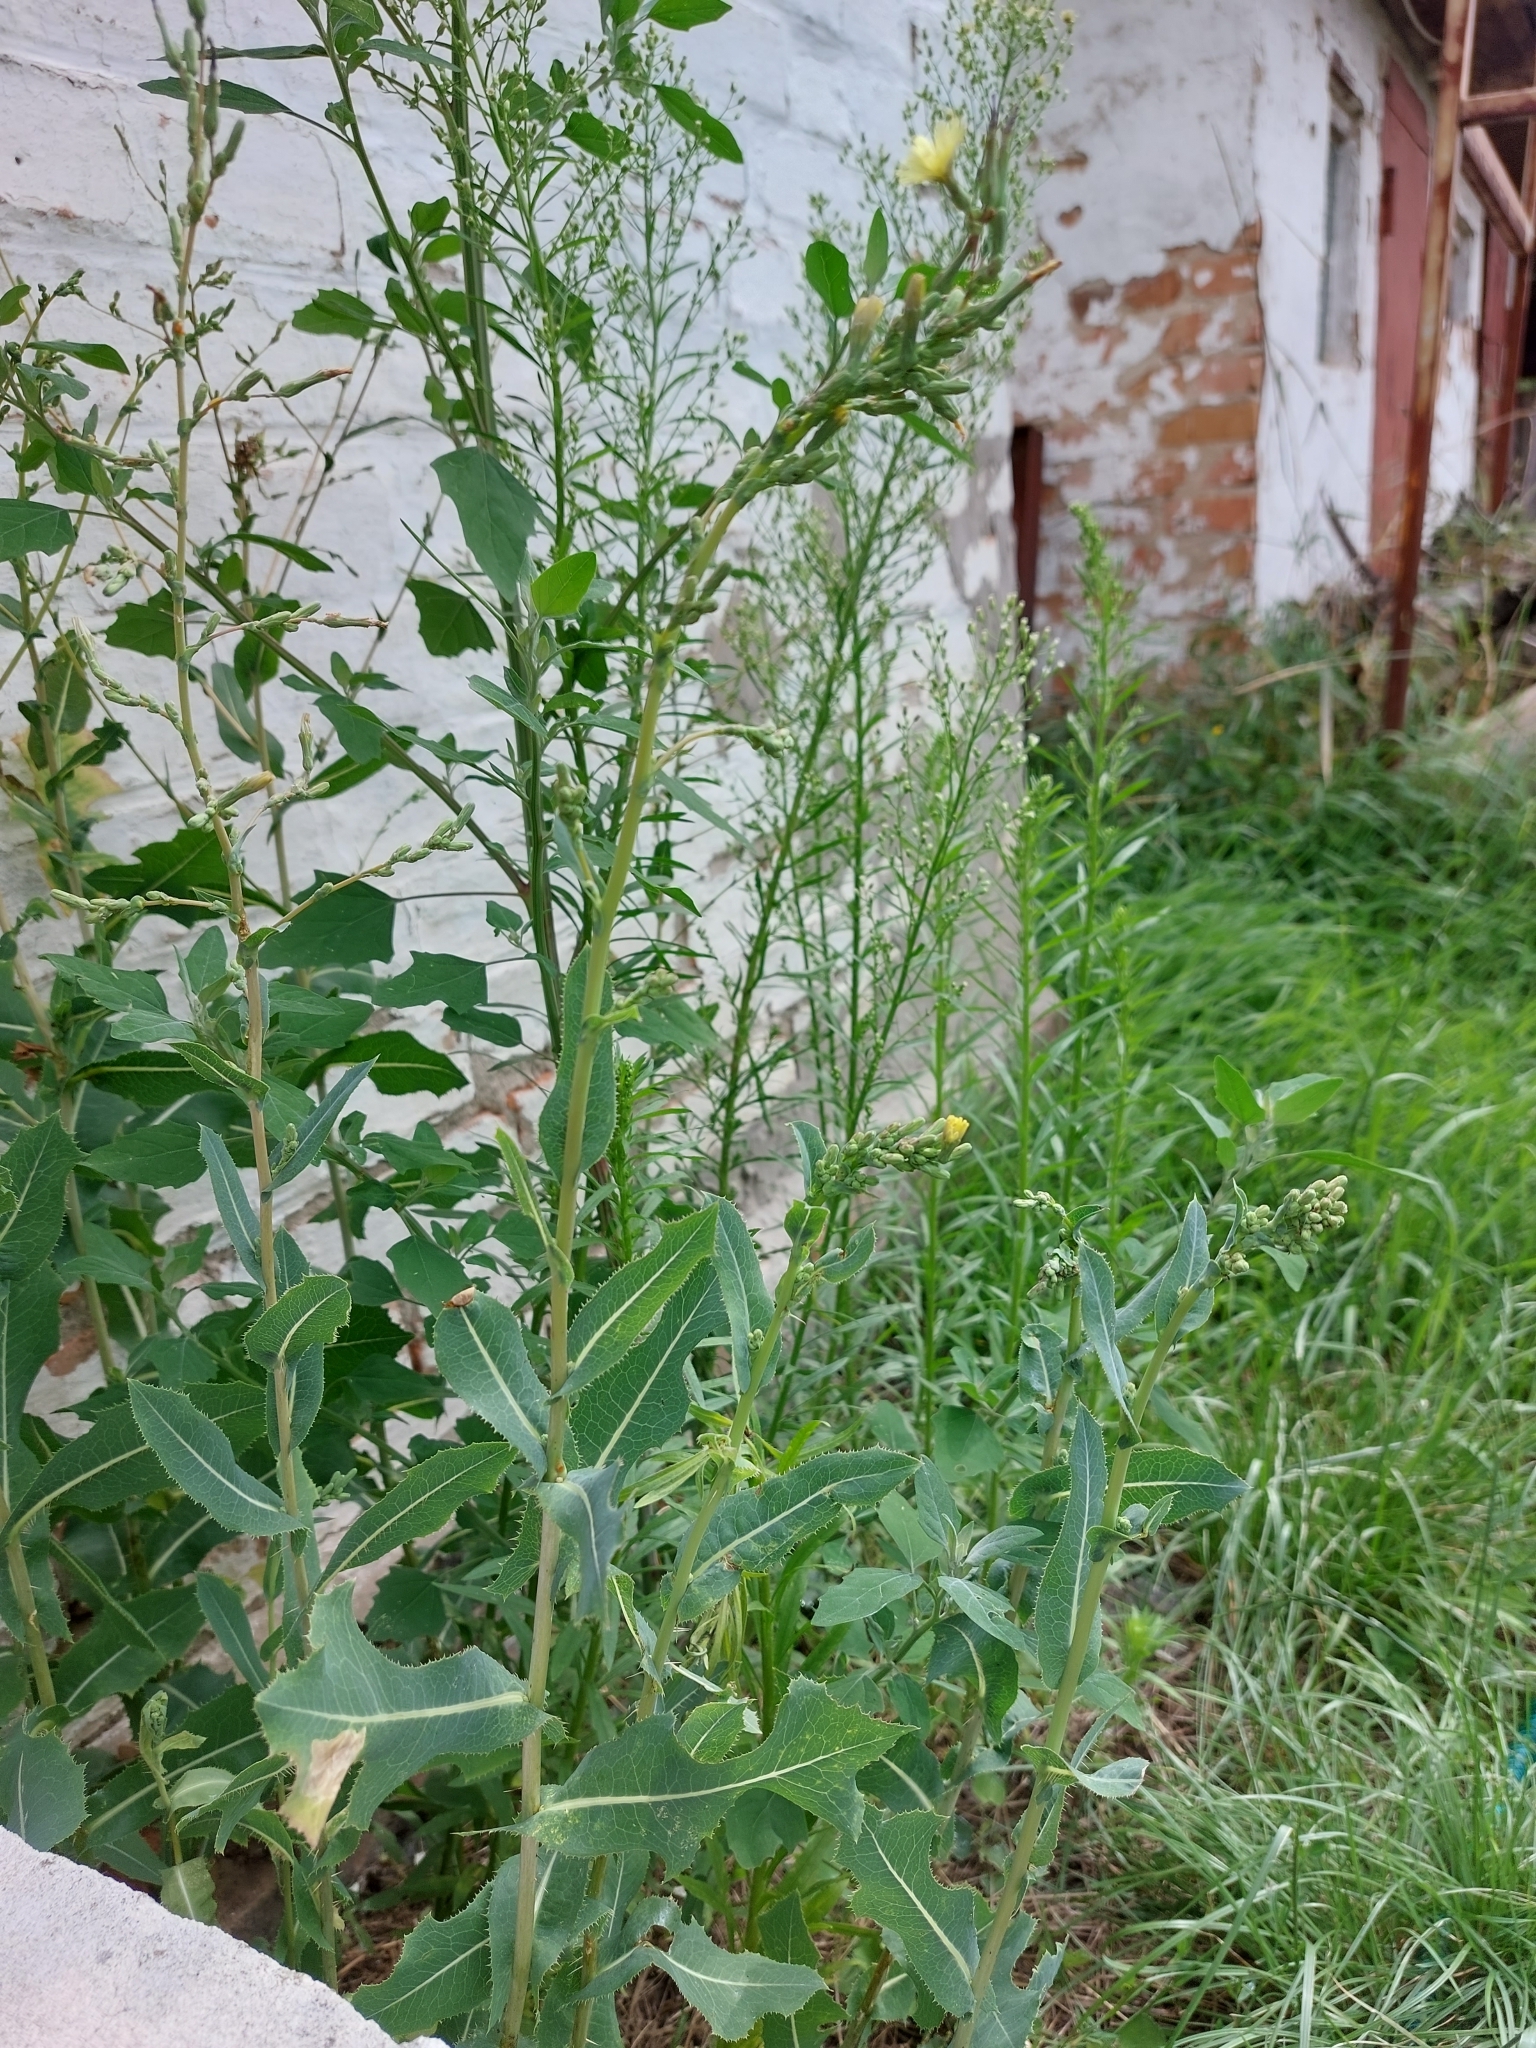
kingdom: Plantae
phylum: Tracheophyta
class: Magnoliopsida
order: Asterales
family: Asteraceae
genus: Lactuca
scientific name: Lactuca serriola
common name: Prickly lettuce
